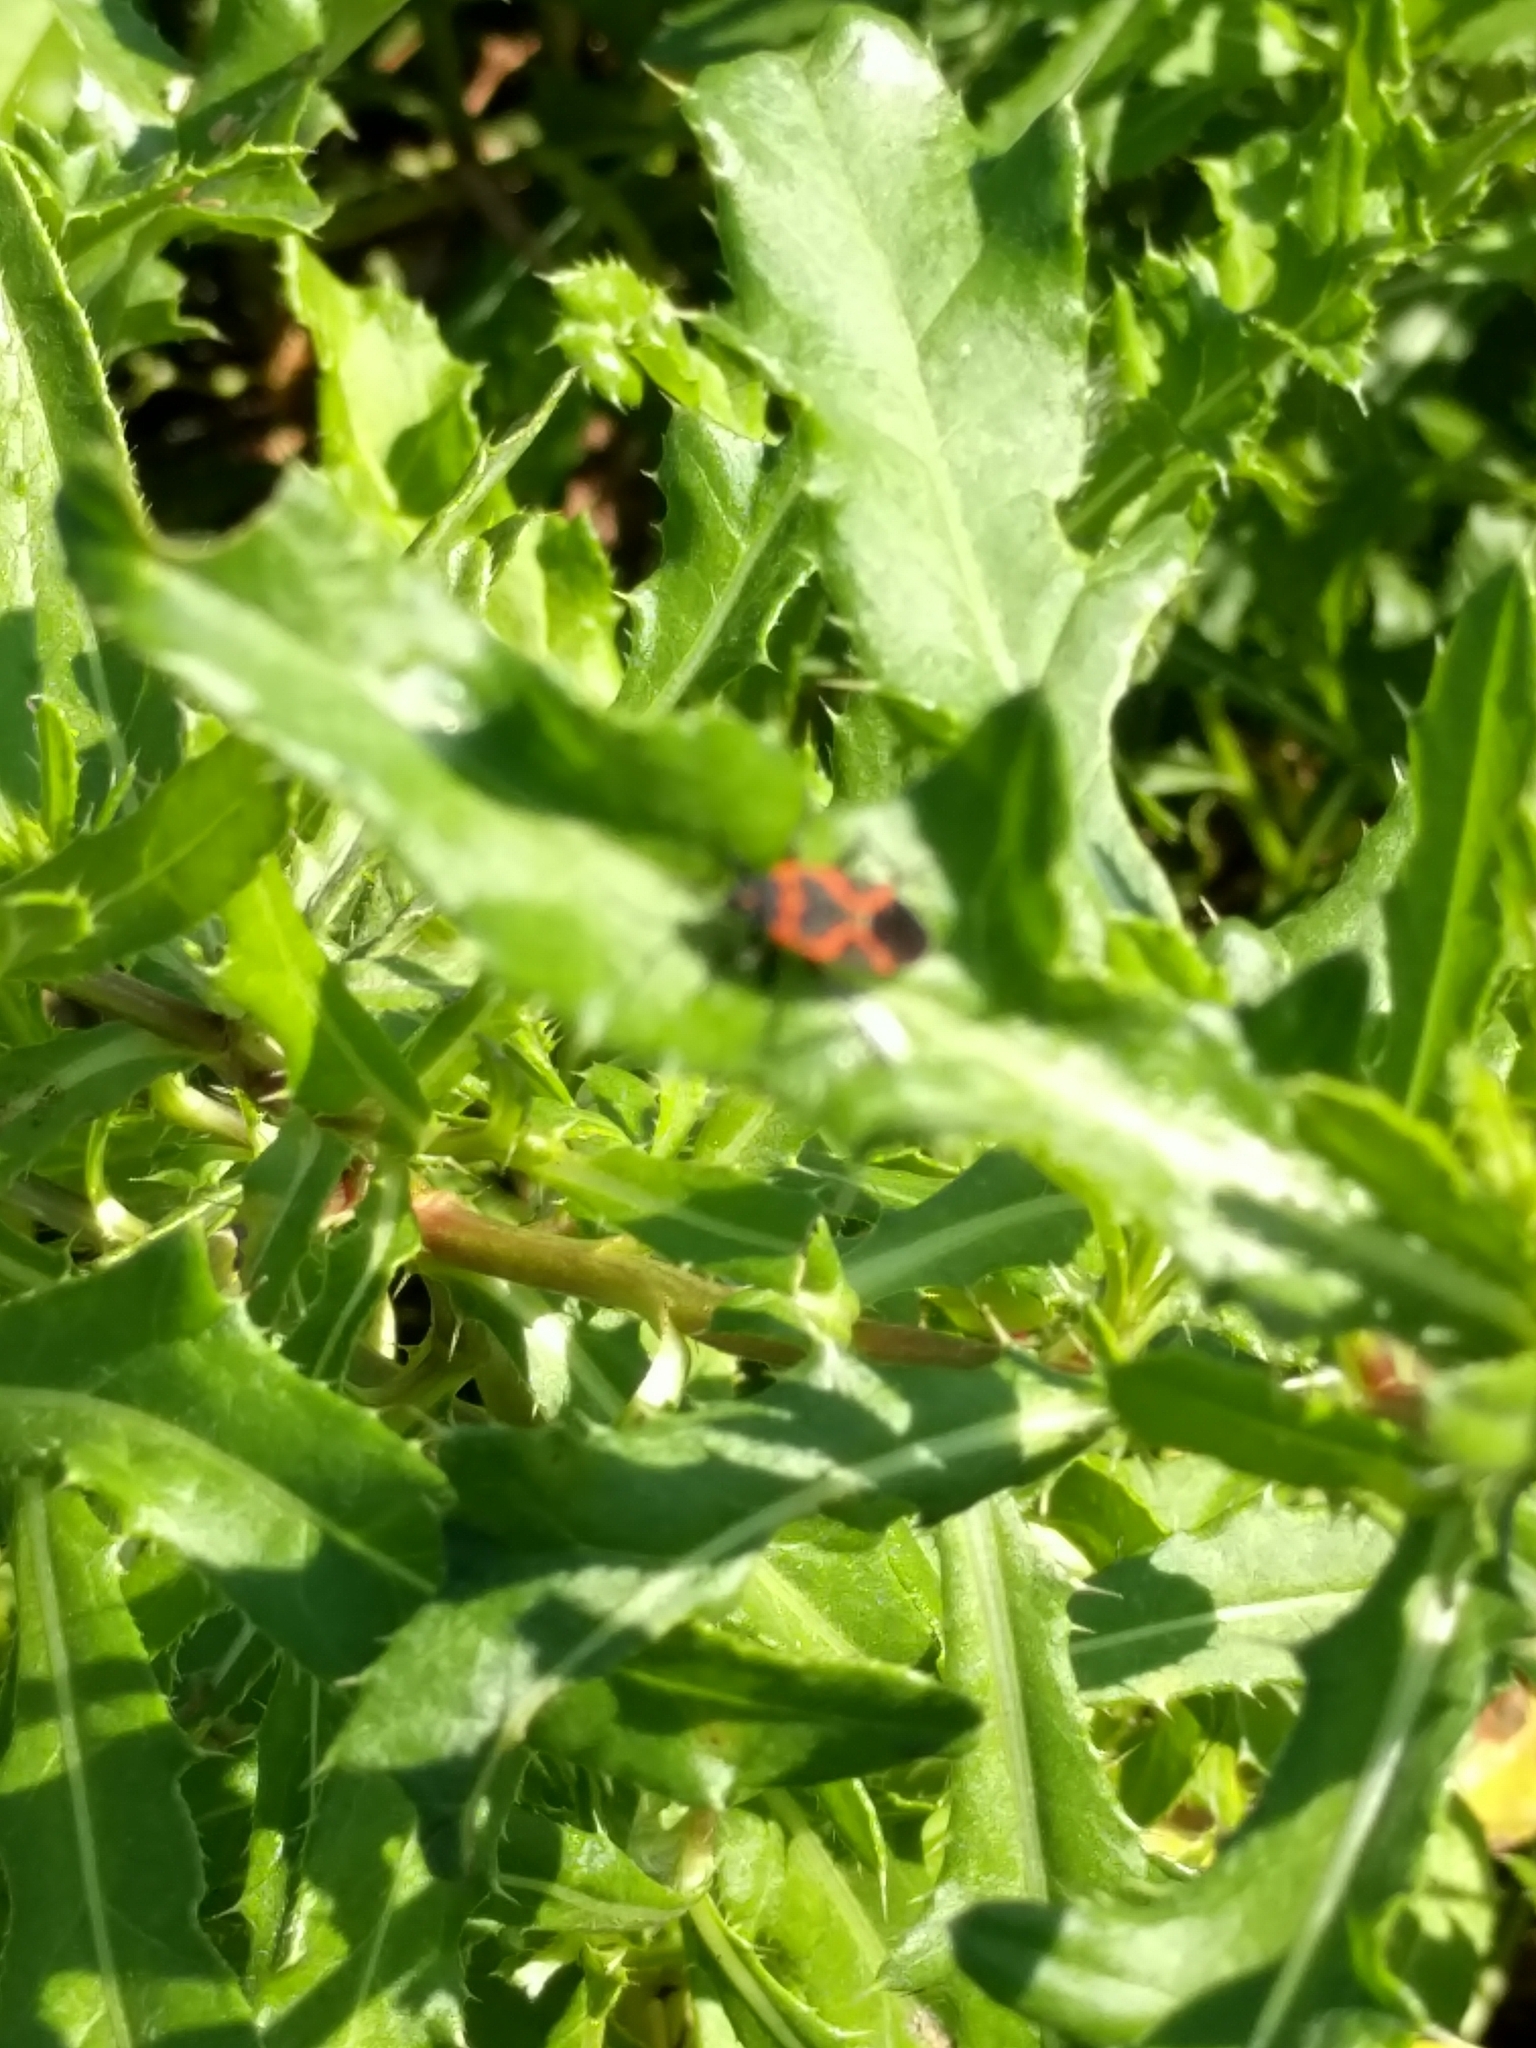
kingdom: Animalia
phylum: Arthropoda
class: Insecta
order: Hemiptera
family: Lygaeidae
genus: Lygaeus
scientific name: Lygaeus kalmii
